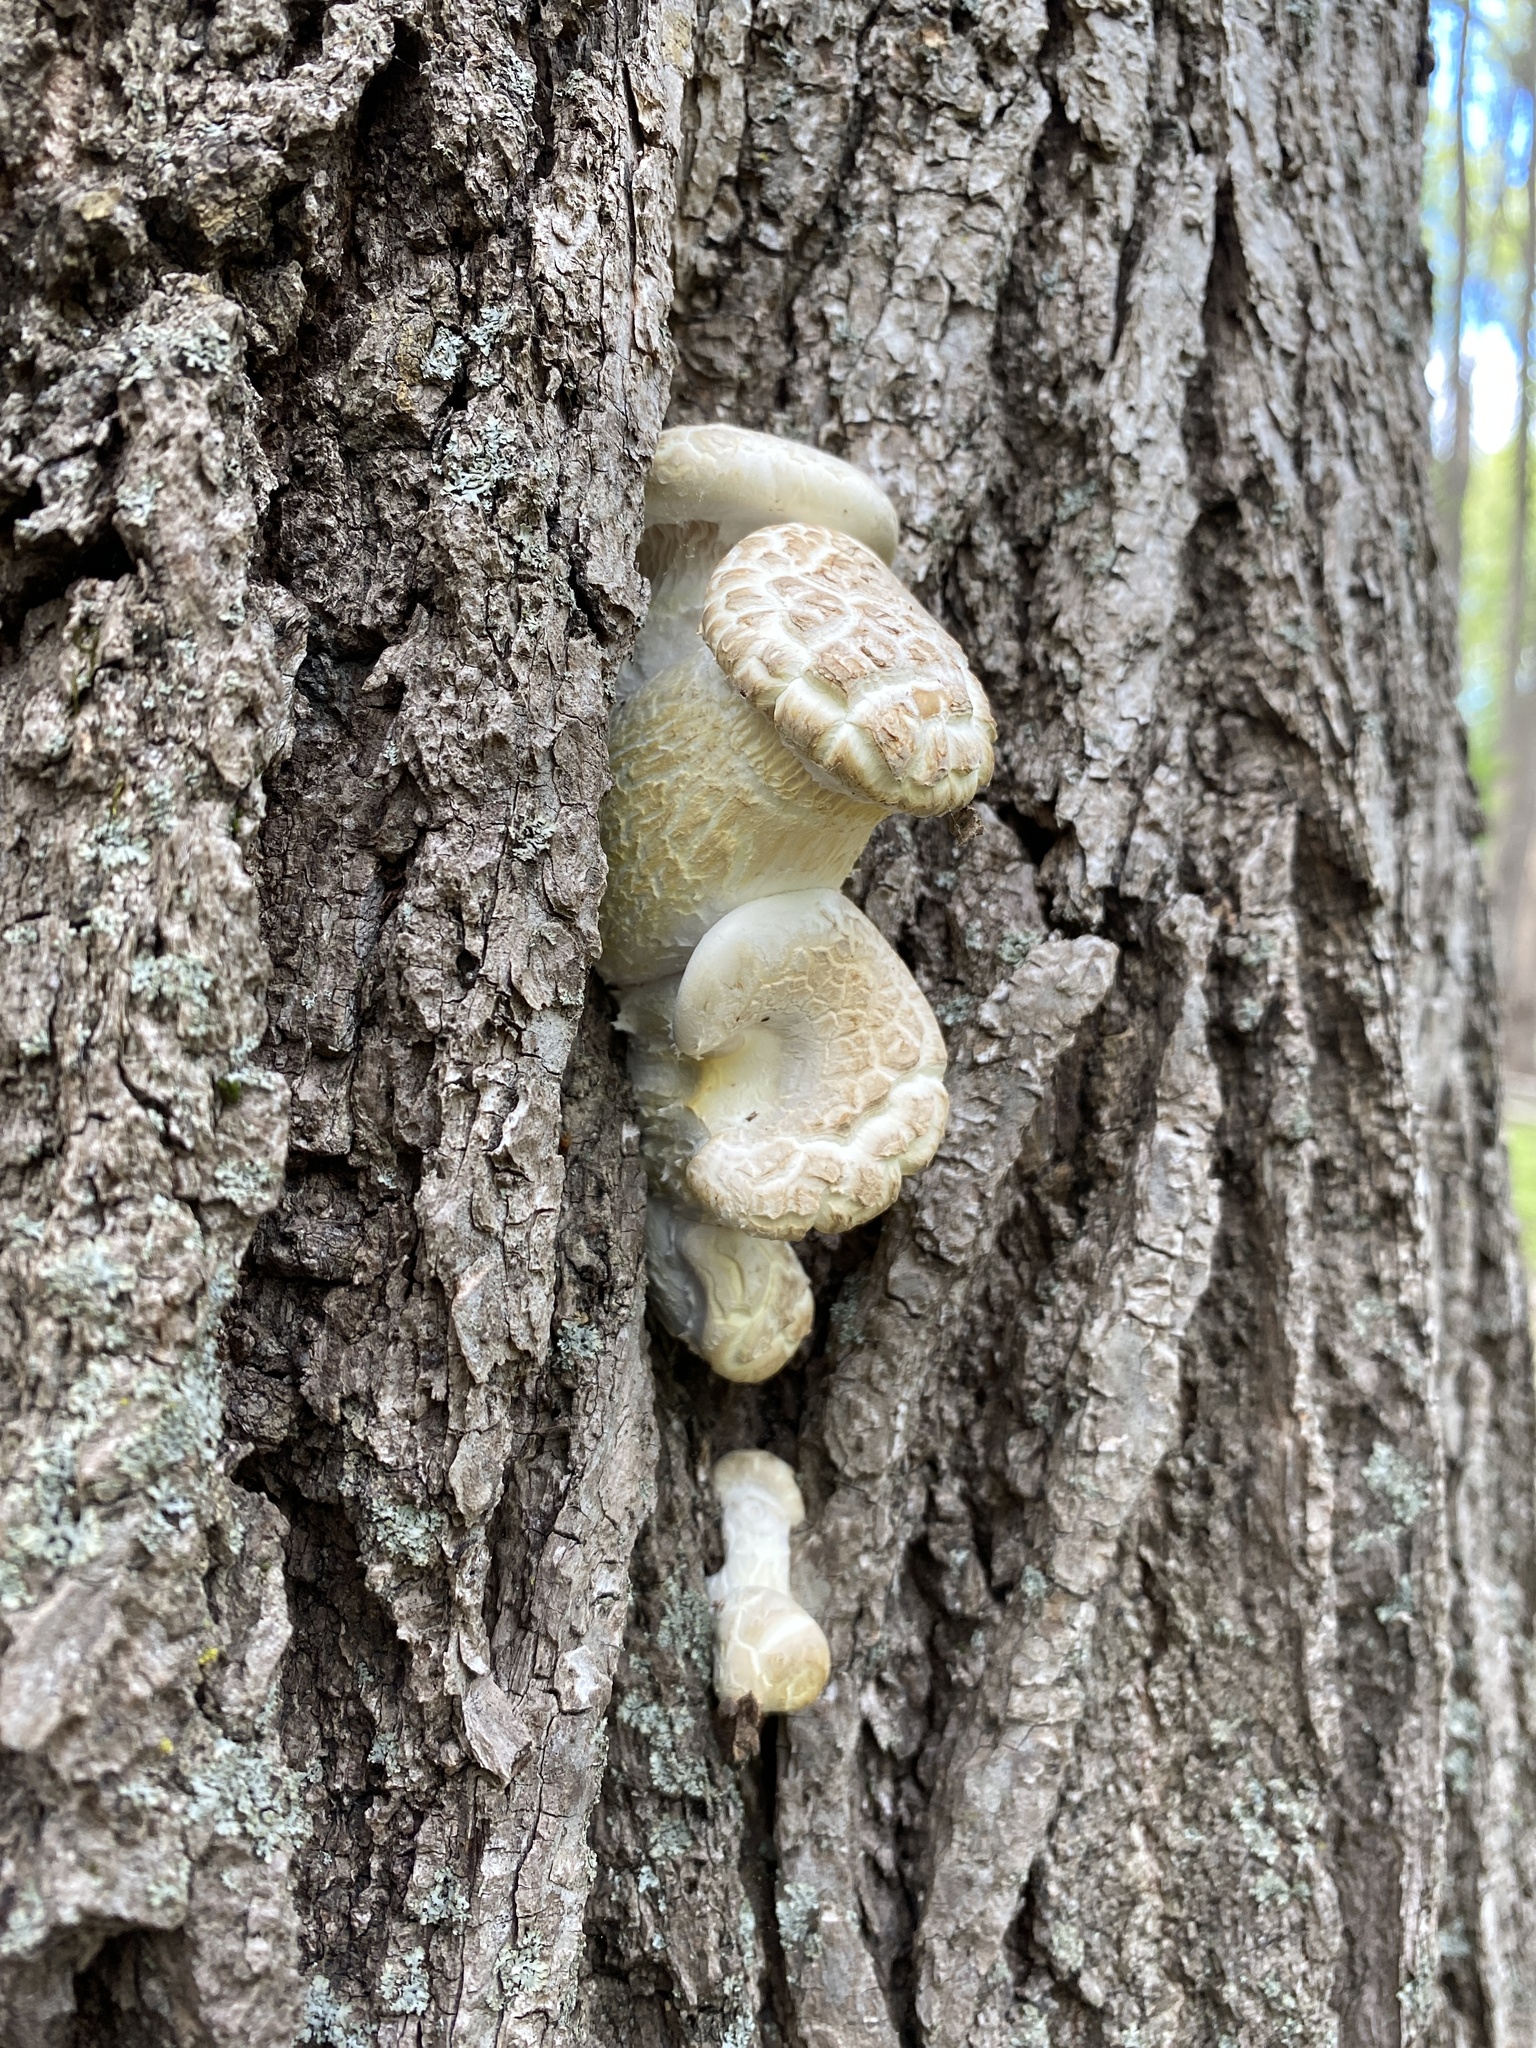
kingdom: Fungi
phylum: Basidiomycota
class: Agaricomycetes
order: Gloeophyllales
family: Gloeophyllaceae
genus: Neolentinus
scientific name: Neolentinus lepideus
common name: Scaly sawgill
